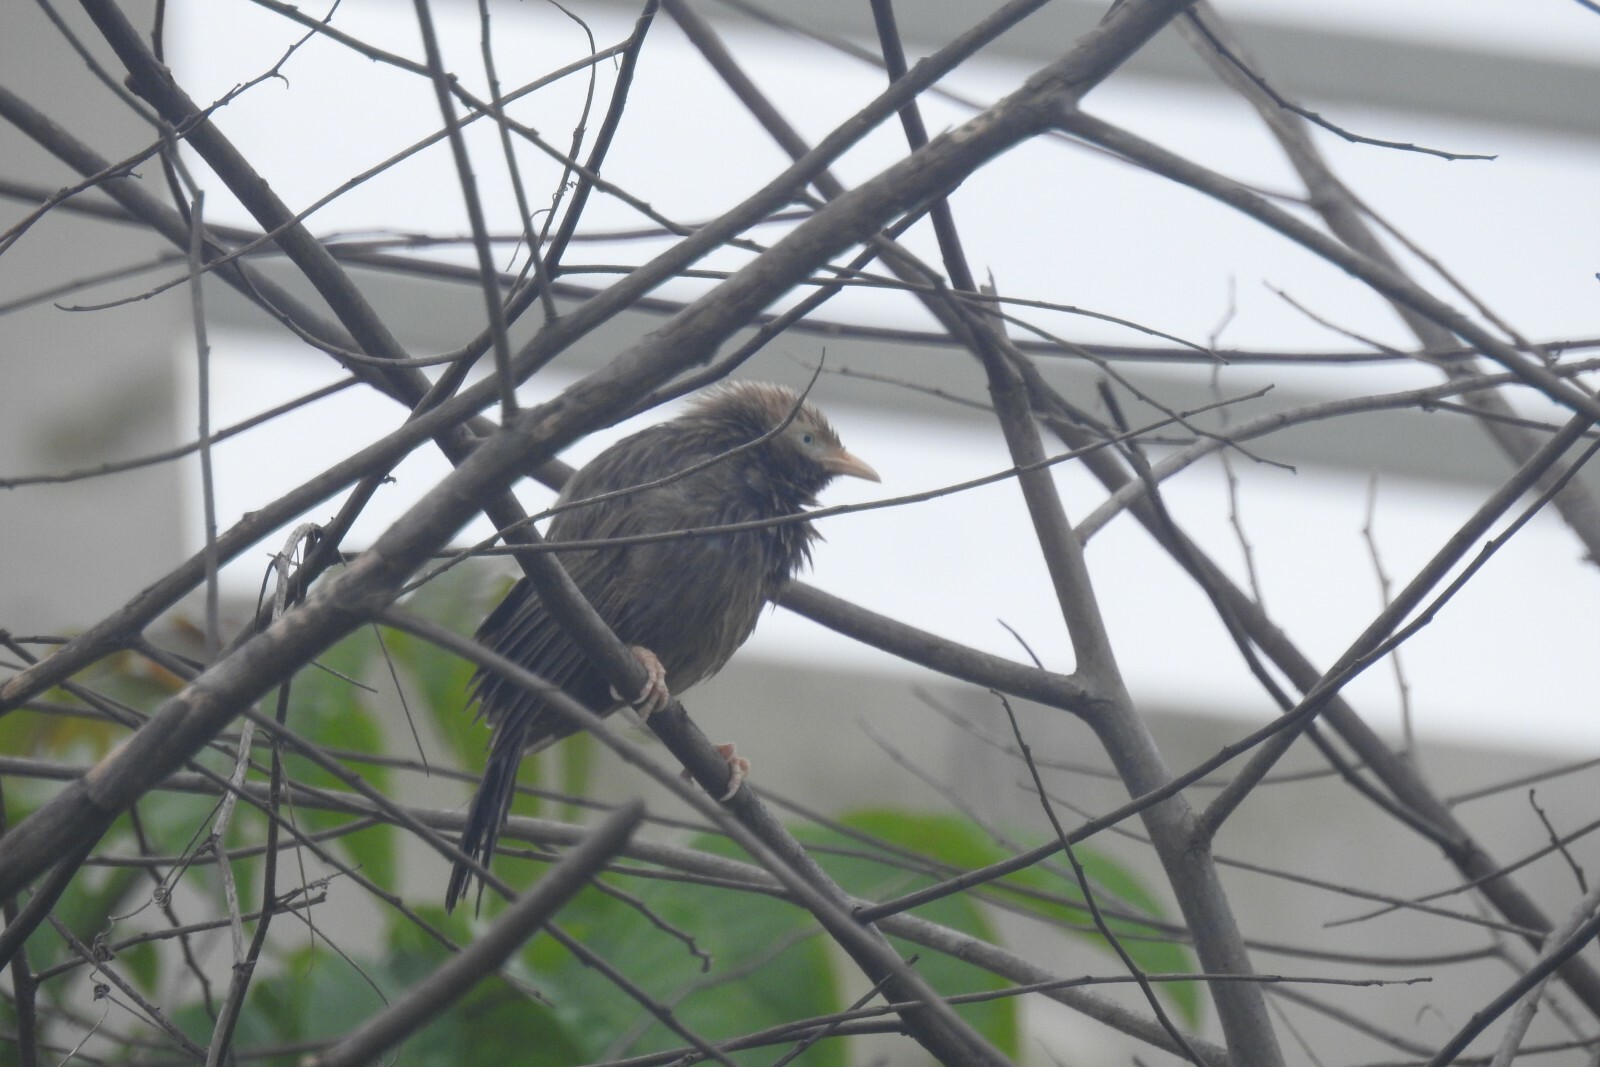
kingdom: Animalia
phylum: Chordata
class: Aves
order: Passeriformes
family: Leiothrichidae
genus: Turdoides
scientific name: Turdoides affinis
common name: Yellow-billed babbler
